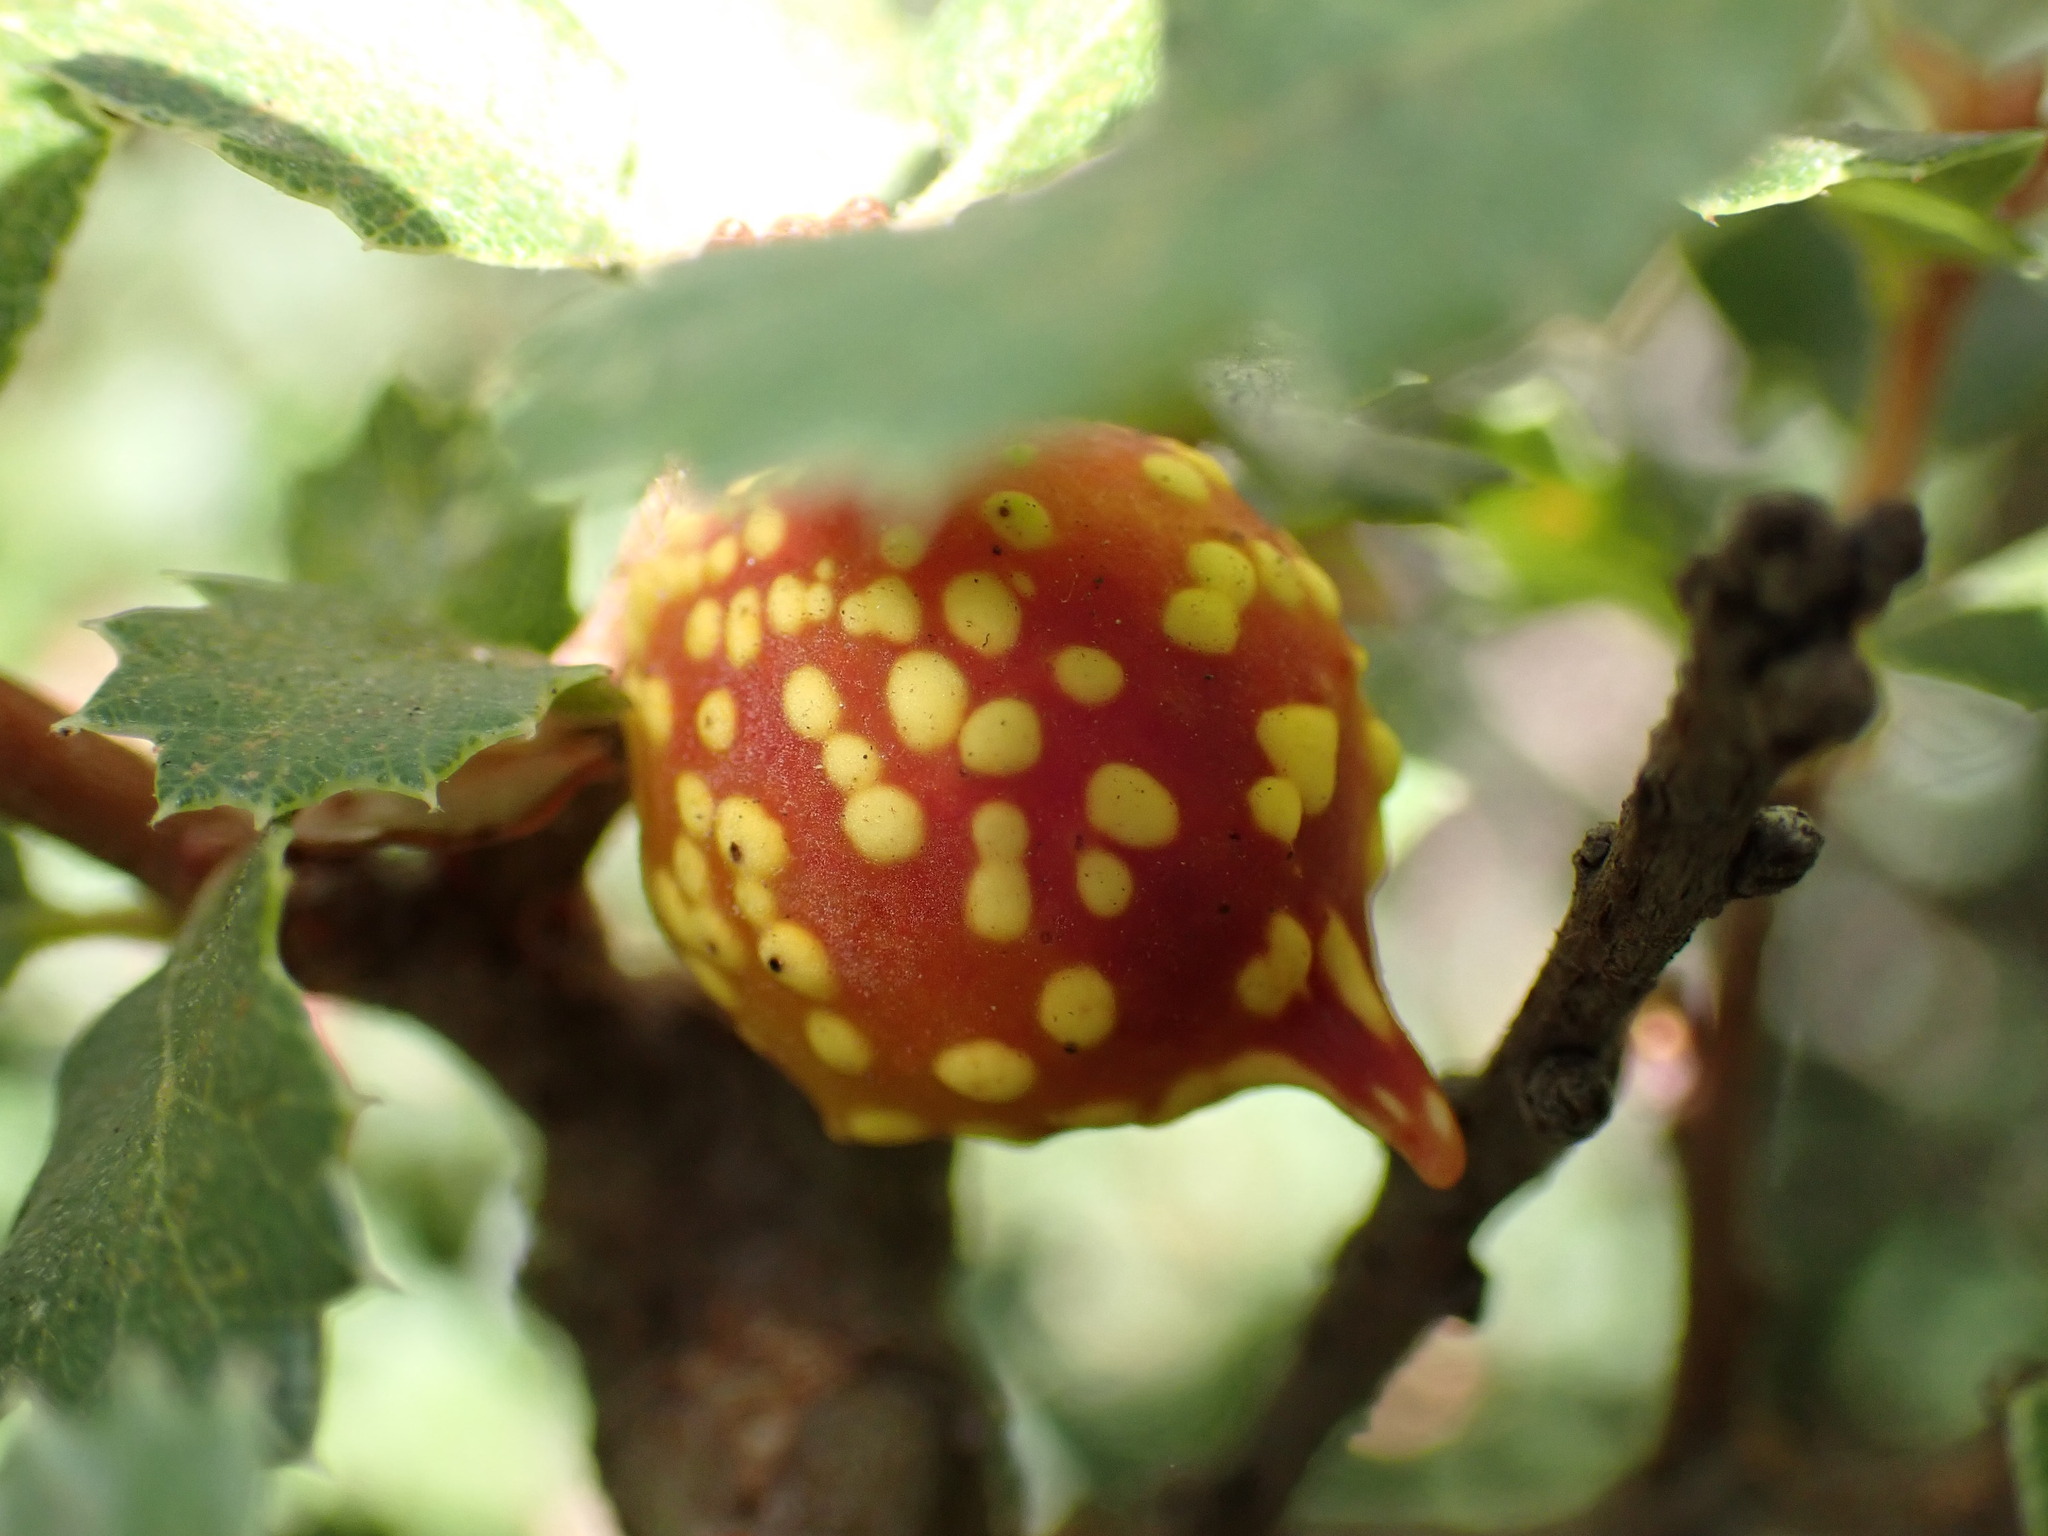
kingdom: Animalia
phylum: Arthropoda
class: Insecta
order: Hymenoptera
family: Cynipidae
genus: Burnettweldia
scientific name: Burnettweldia
